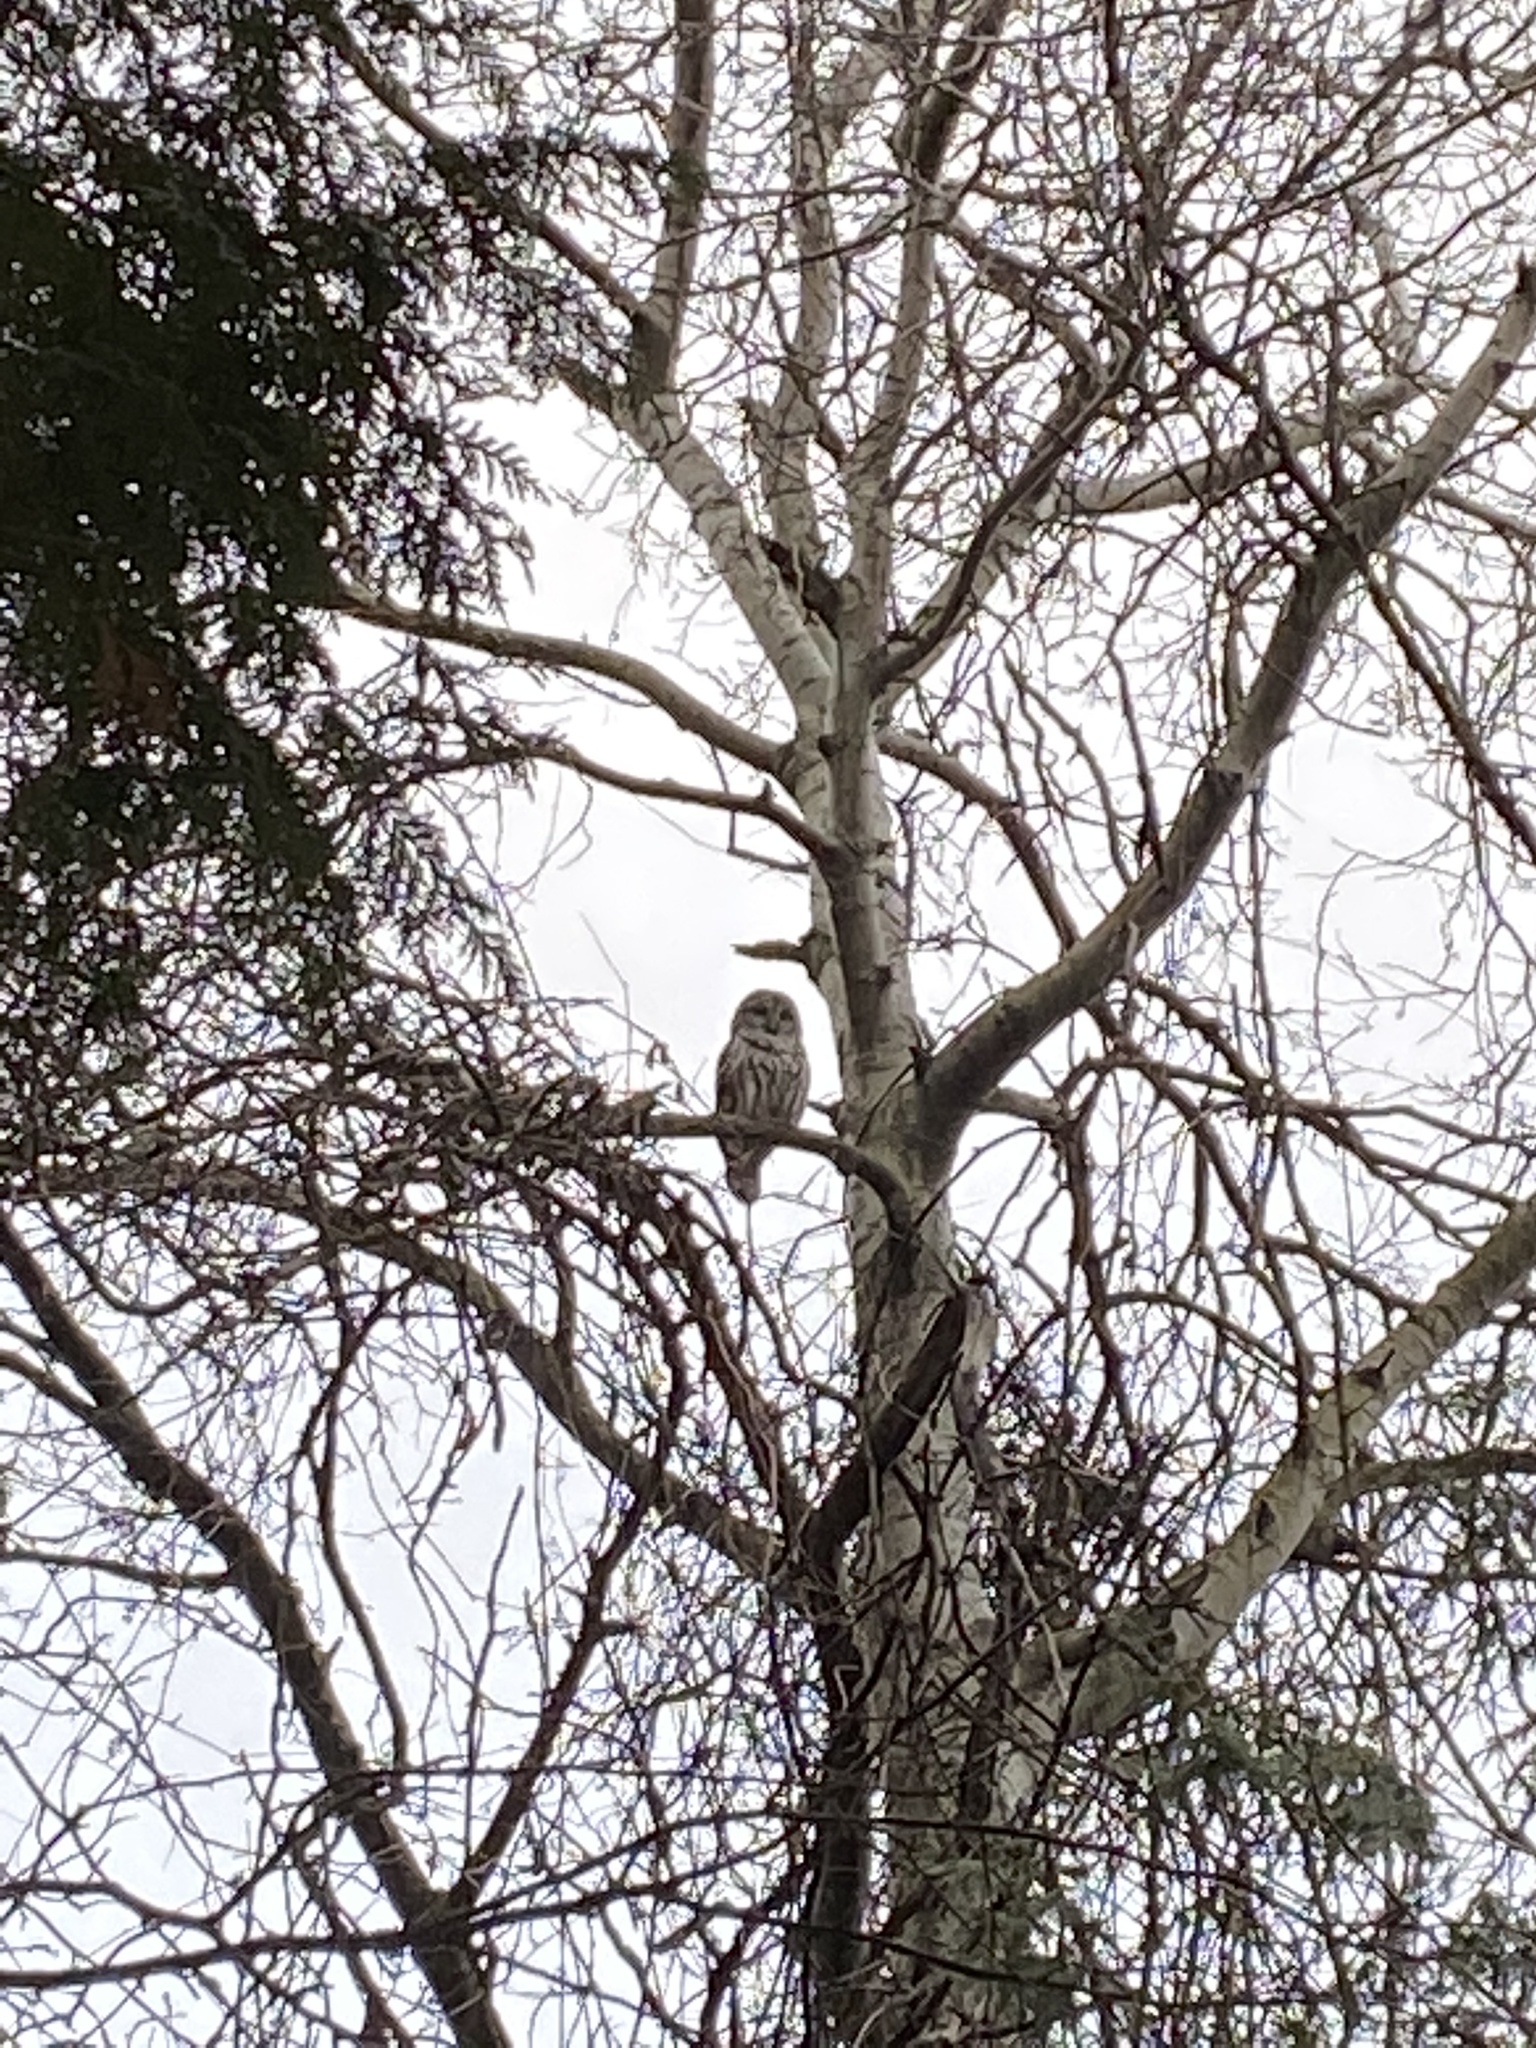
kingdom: Animalia
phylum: Chordata
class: Aves
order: Strigiformes
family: Strigidae
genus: Strix
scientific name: Strix varia
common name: Barred owl
